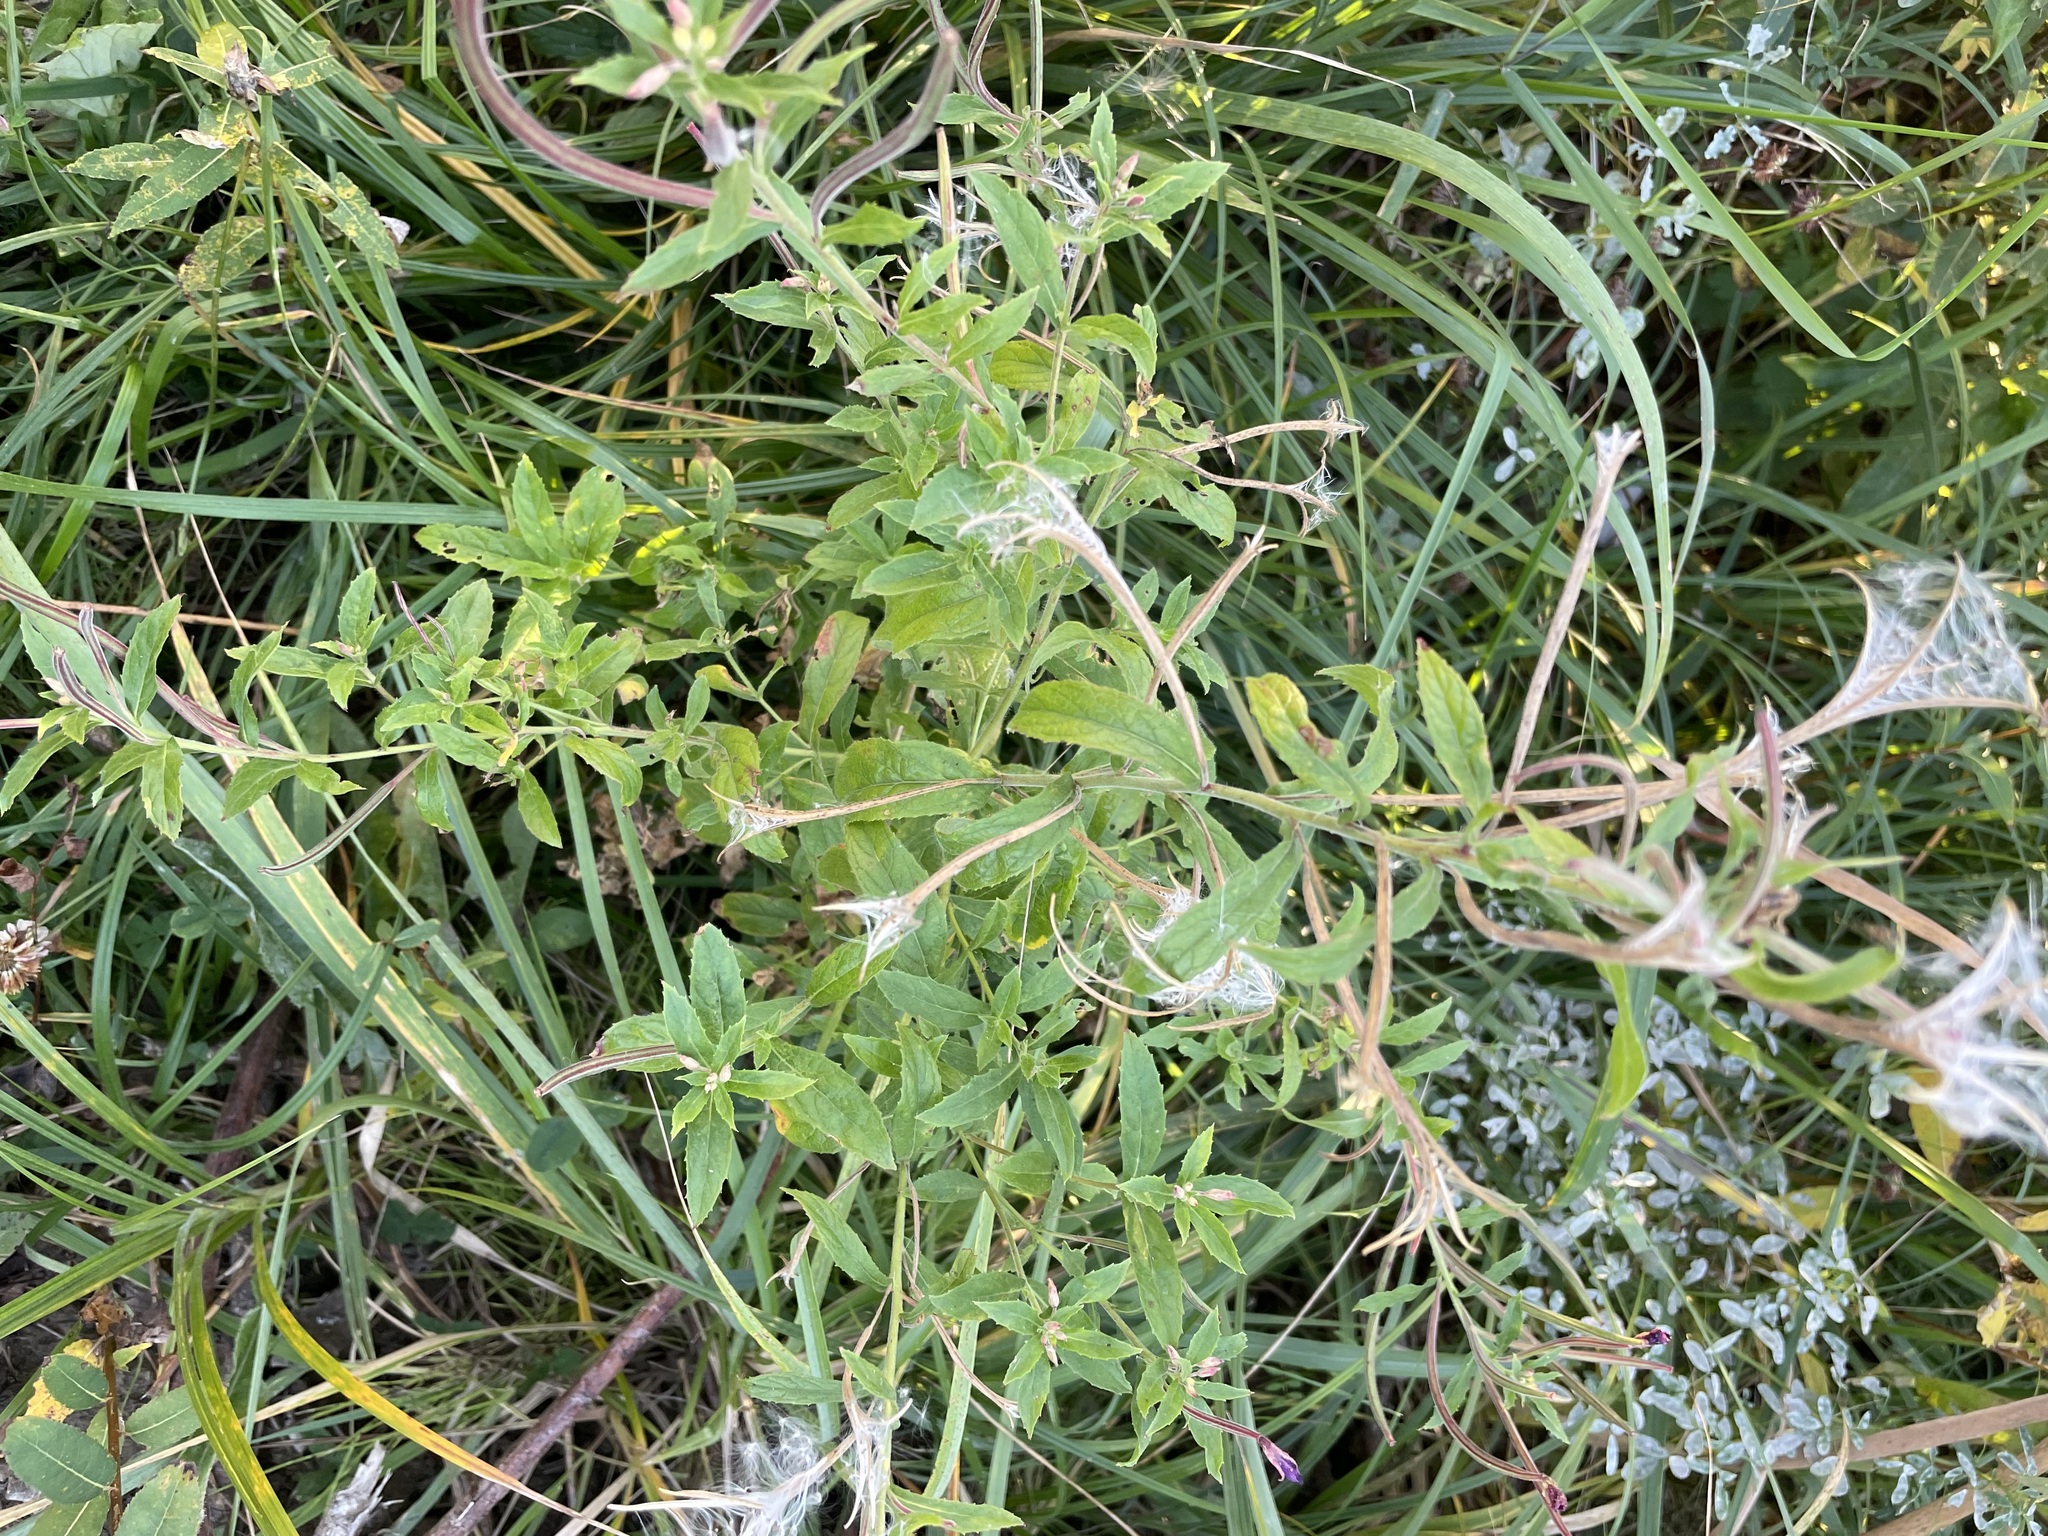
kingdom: Plantae
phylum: Tracheophyta
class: Magnoliopsida
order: Myrtales
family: Onagraceae
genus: Epilobium
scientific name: Epilobium hirsutum
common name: Great willowherb
